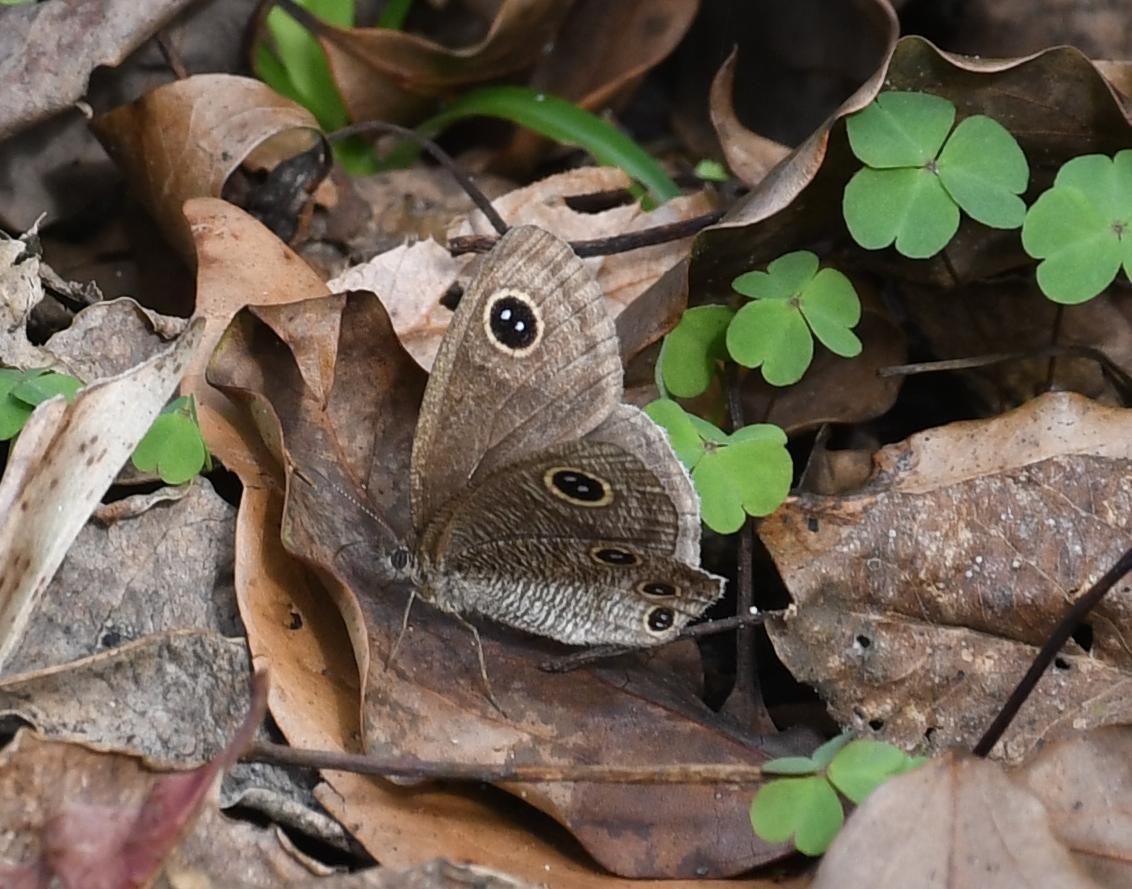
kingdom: Animalia
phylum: Arthropoda
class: Insecta
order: Lepidoptera
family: Nymphalidae
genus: Ypthima
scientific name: Ypthima multistriata
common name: Striated ringlet
